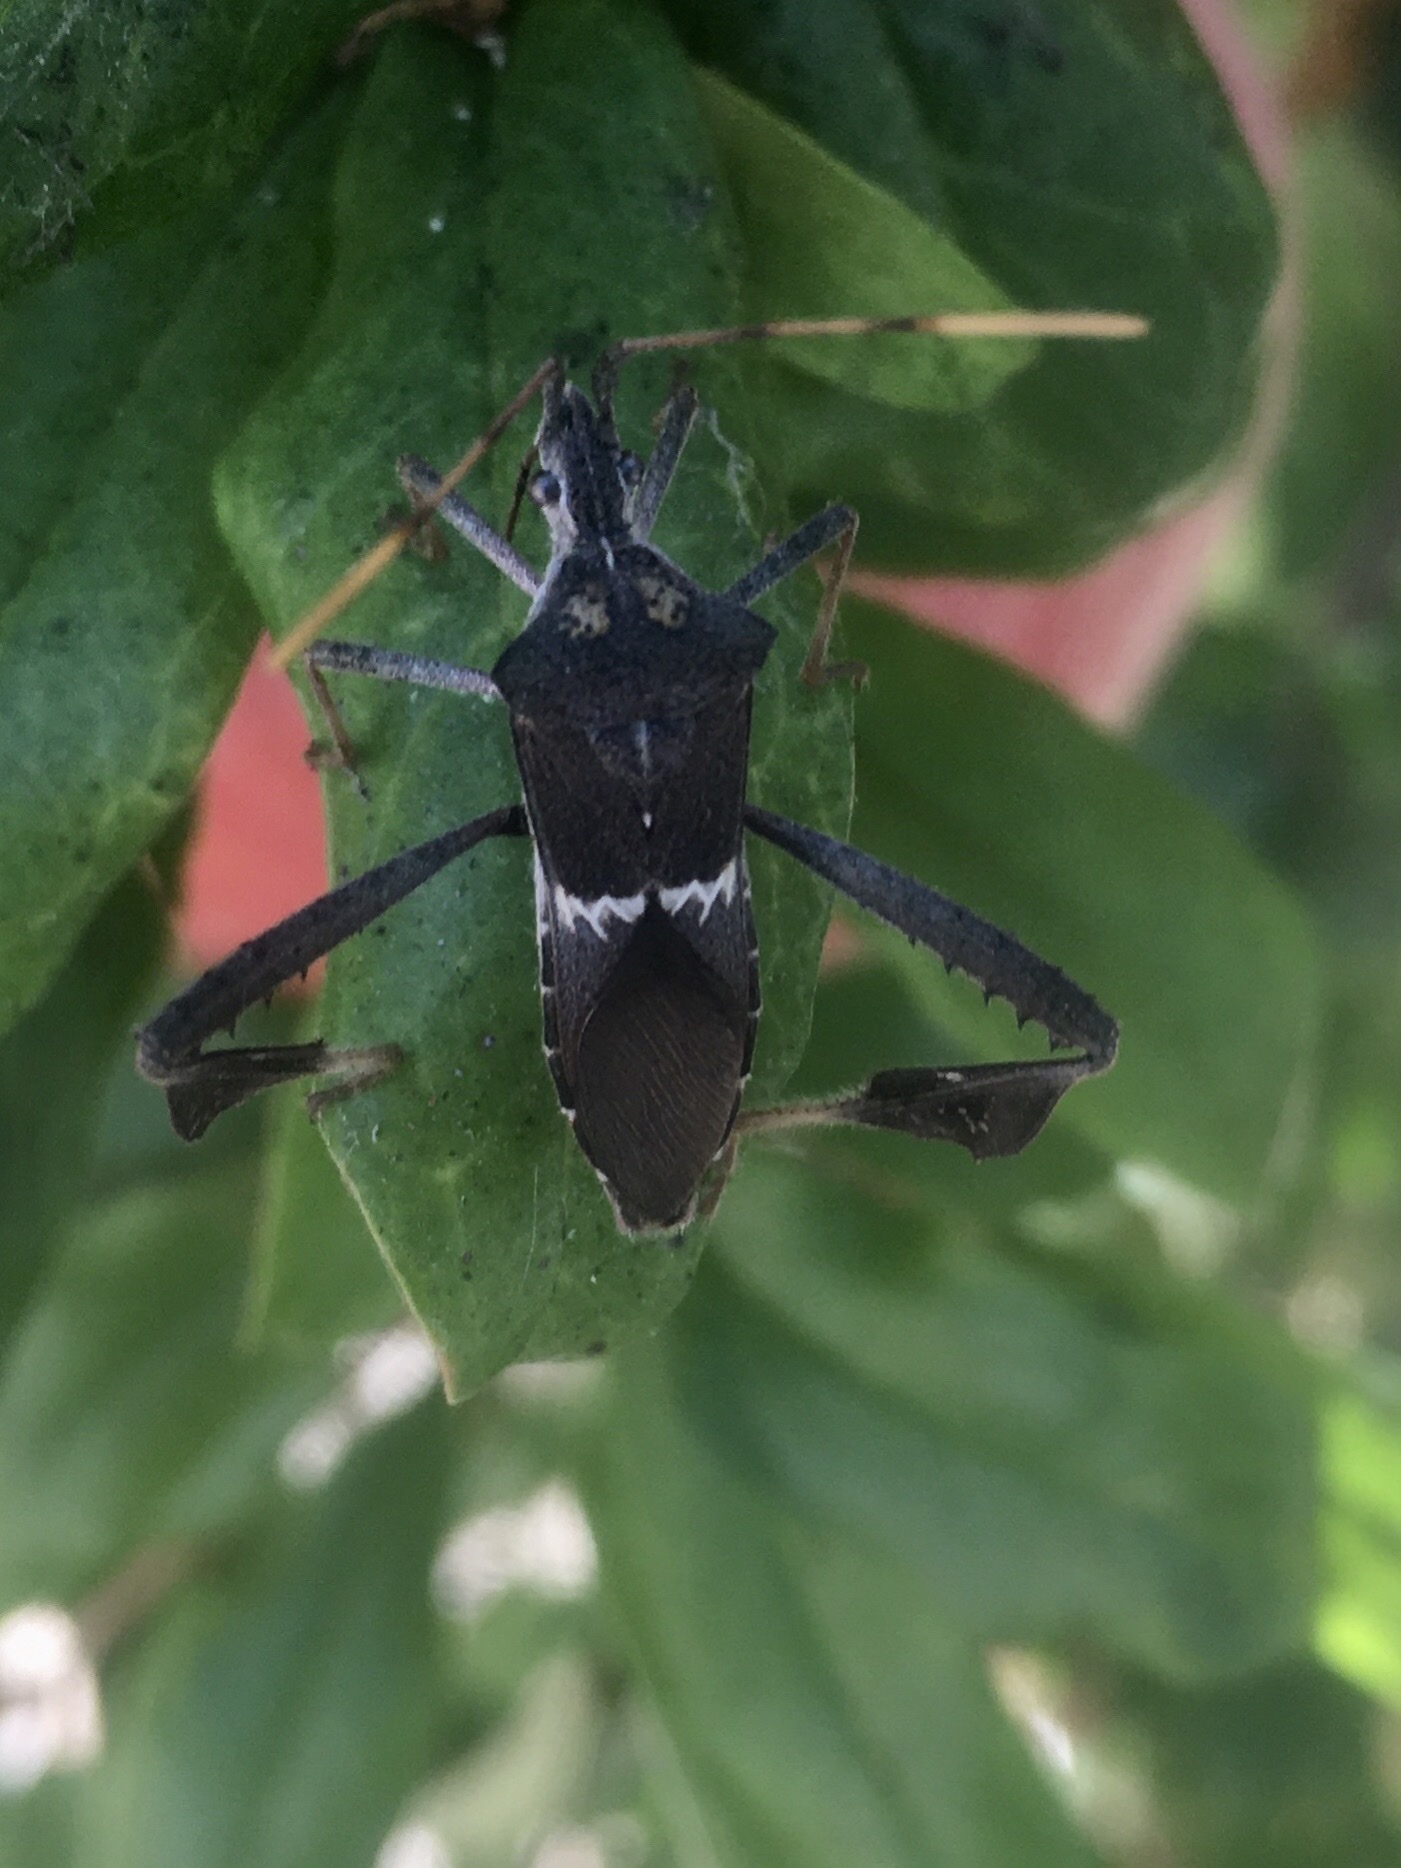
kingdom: Animalia
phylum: Arthropoda
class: Insecta
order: Hemiptera
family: Coreidae
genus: Leptoglossus
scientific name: Leptoglossus zonatus
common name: Large-legged bug
